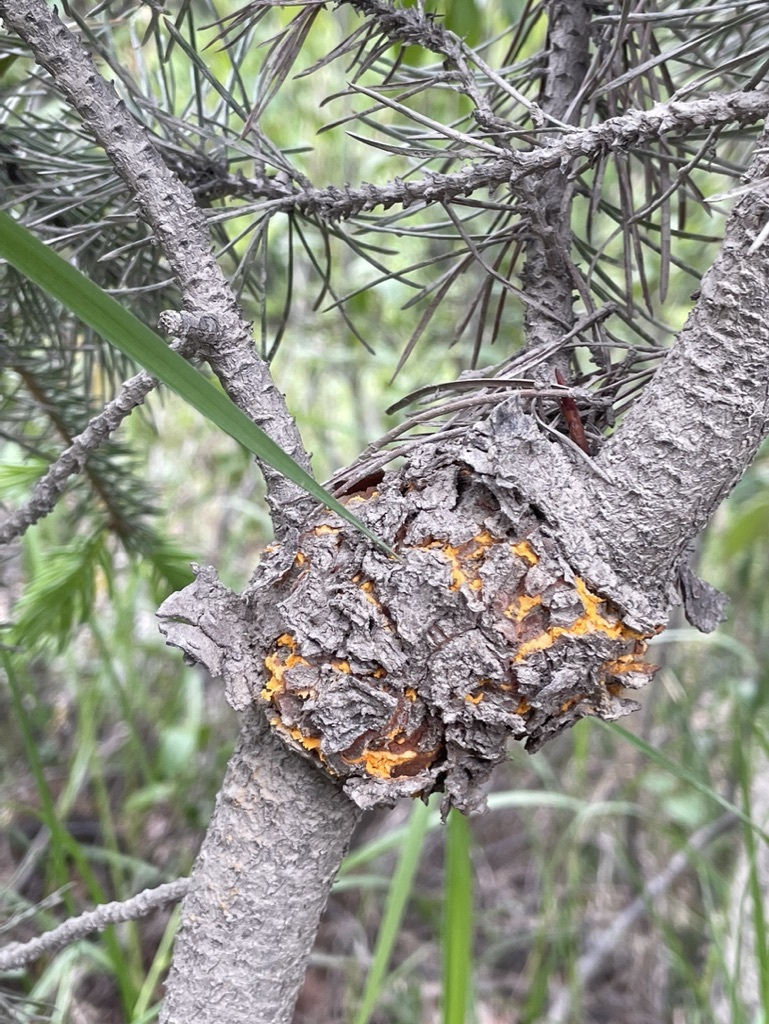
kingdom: Fungi
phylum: Basidiomycota
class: Pucciniomycetes
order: Pucciniales
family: Cronartiaceae
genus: Cronartium
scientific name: Cronartium harknessii
